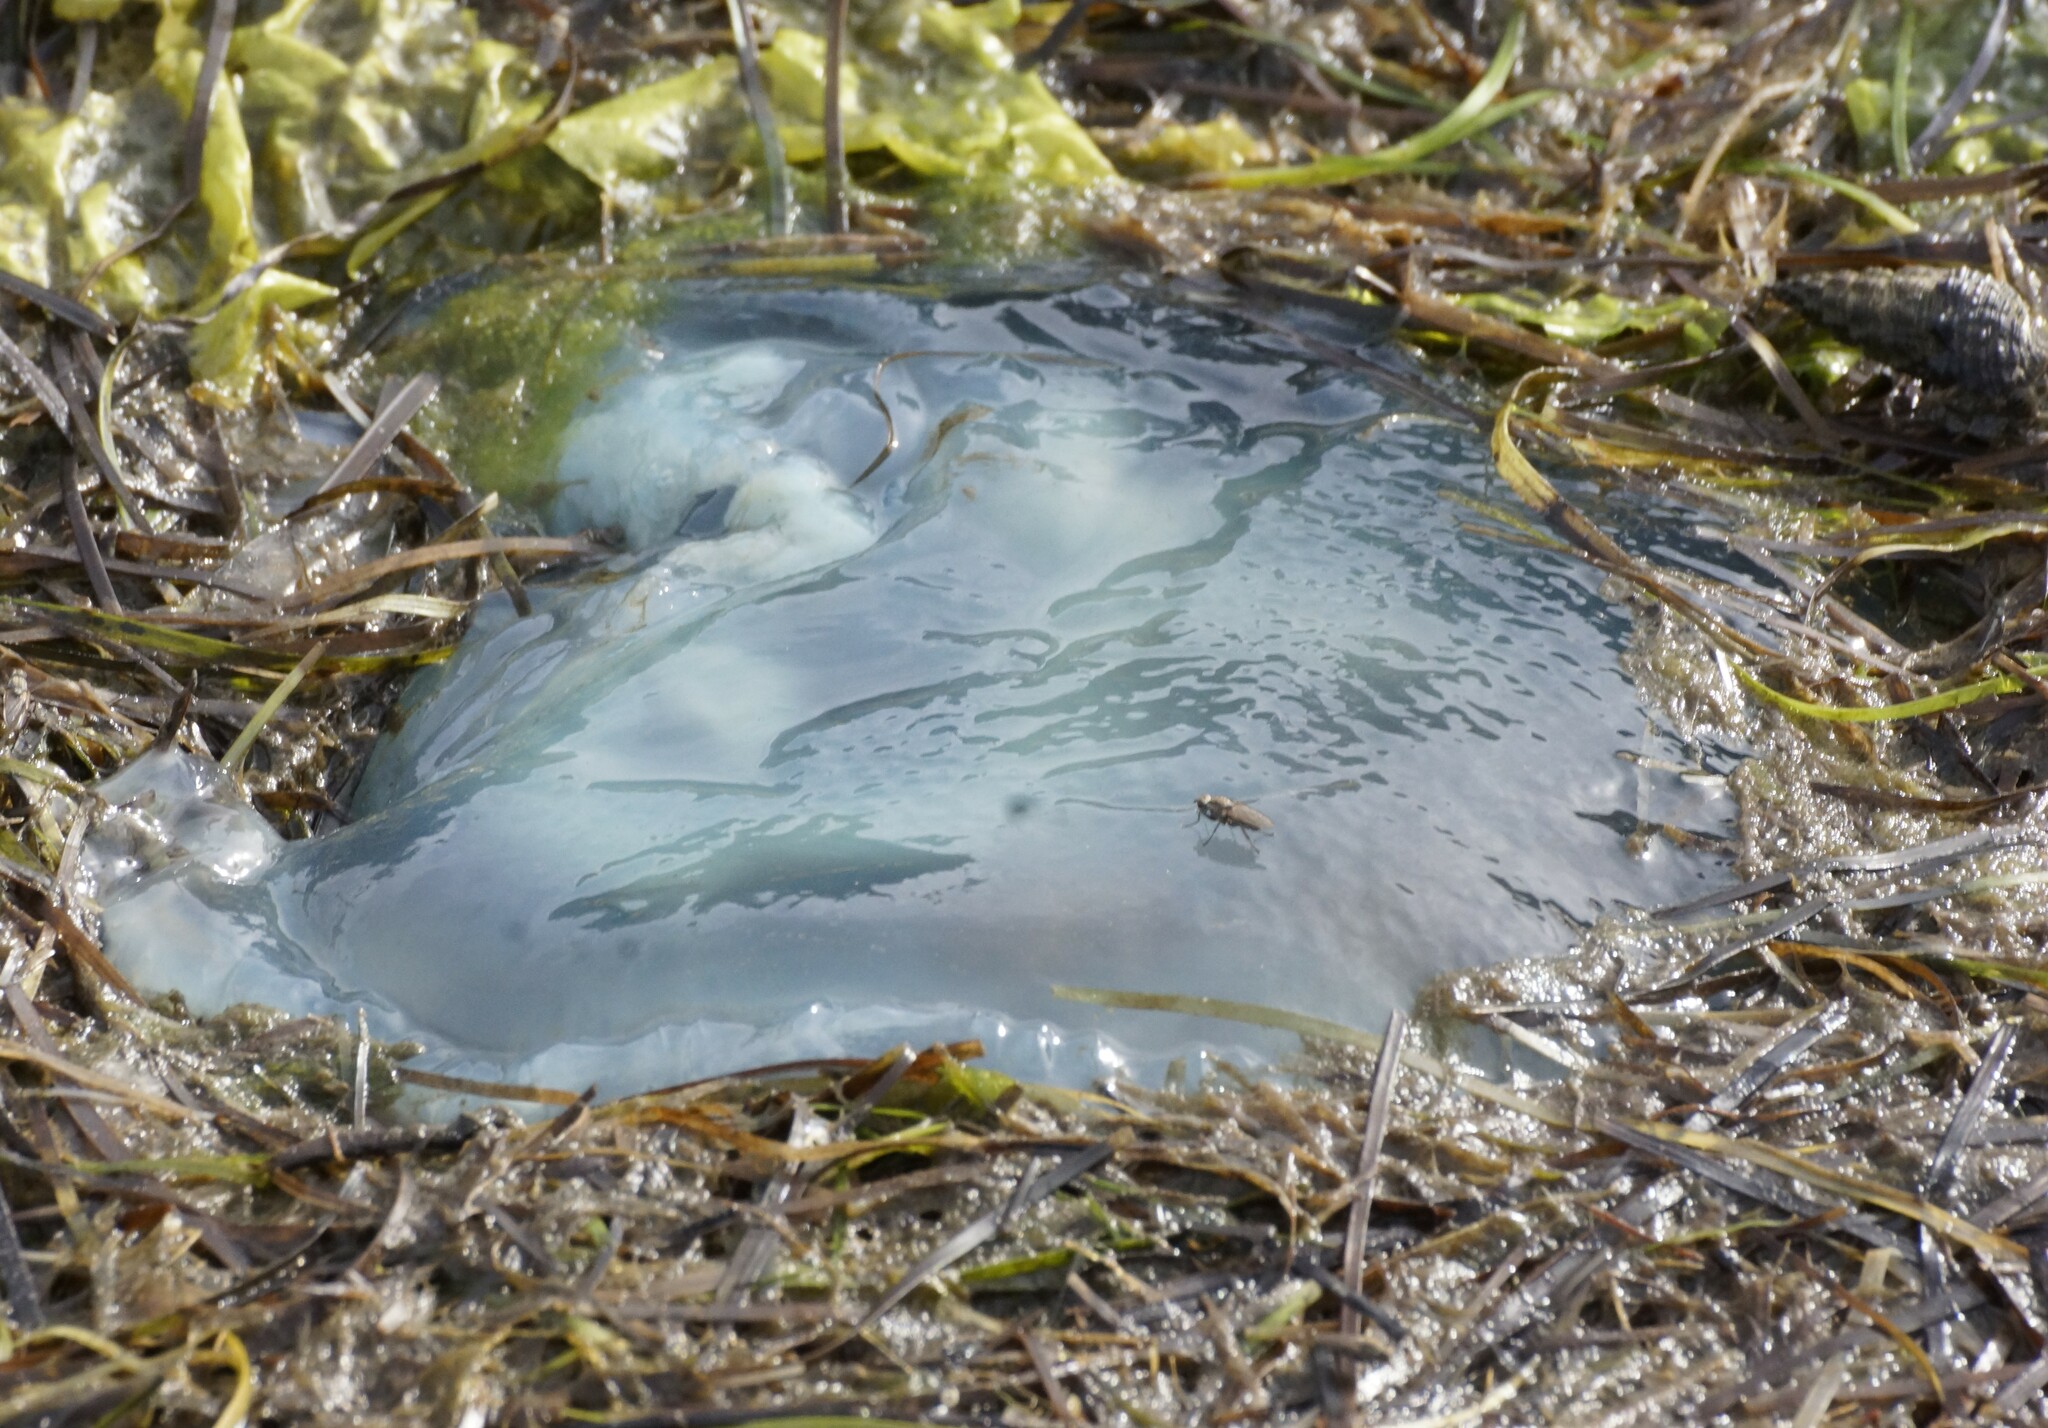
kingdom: Animalia
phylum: Cnidaria
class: Scyphozoa
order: Rhizostomeae
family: Catostylidae
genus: Catostylus
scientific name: Catostylus mosaicus
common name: Blue blubber
